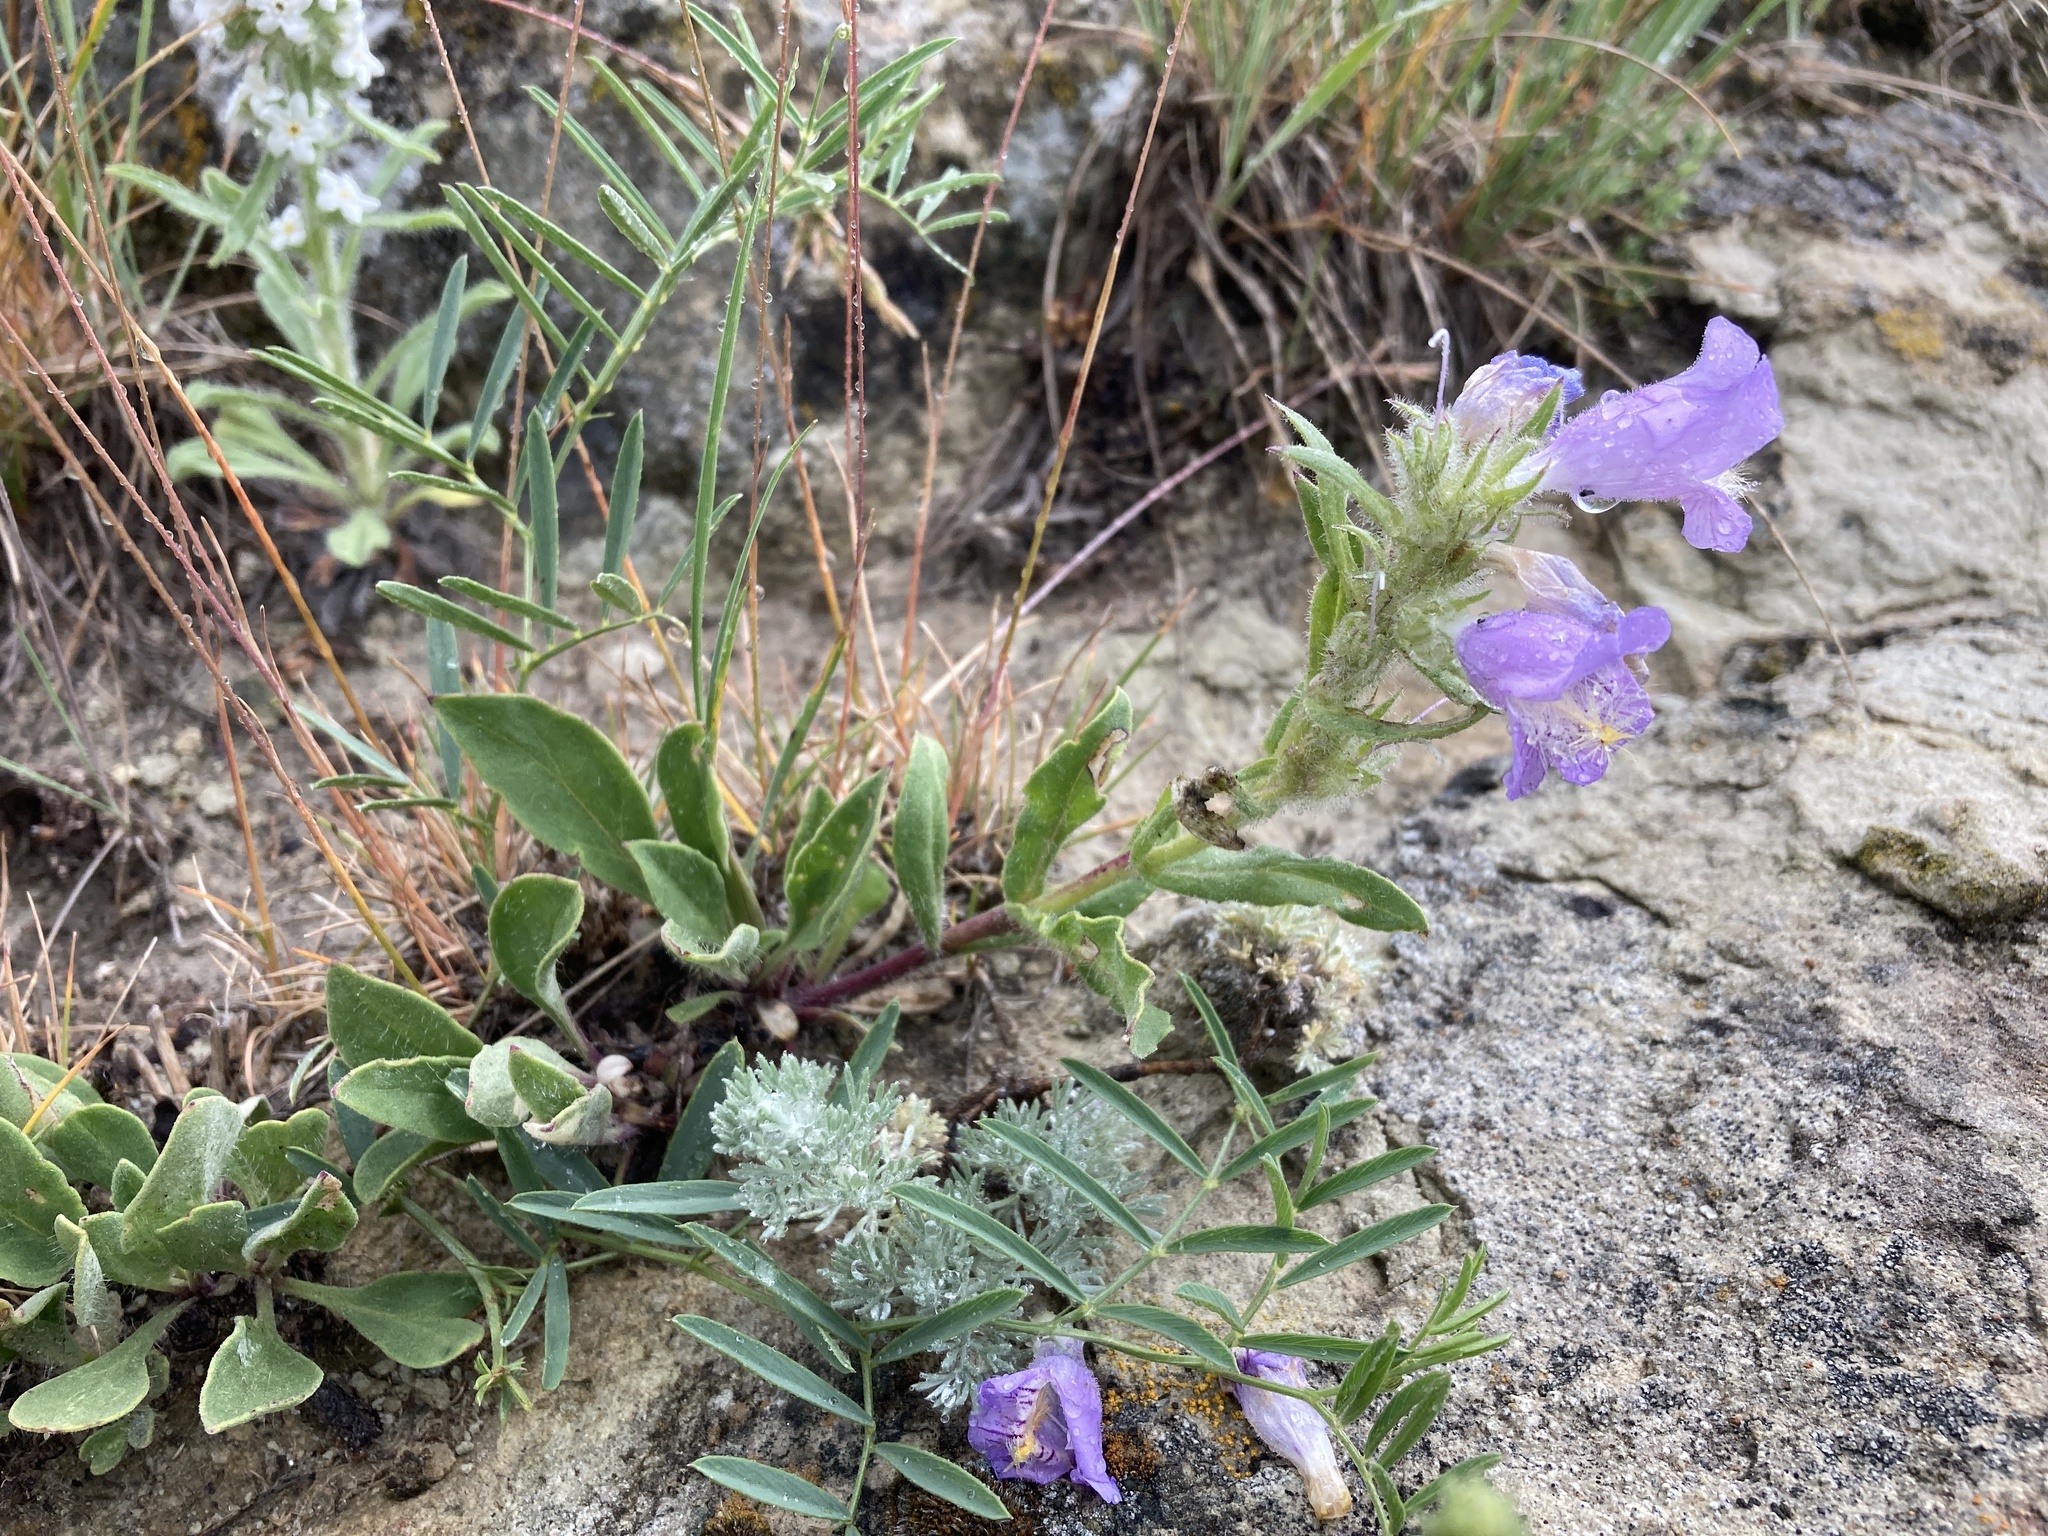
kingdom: Plantae
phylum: Tracheophyta
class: Magnoliopsida
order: Lamiales
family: Plantaginaceae
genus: Penstemon
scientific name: Penstemon eriantherus
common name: Crested beardtongue
